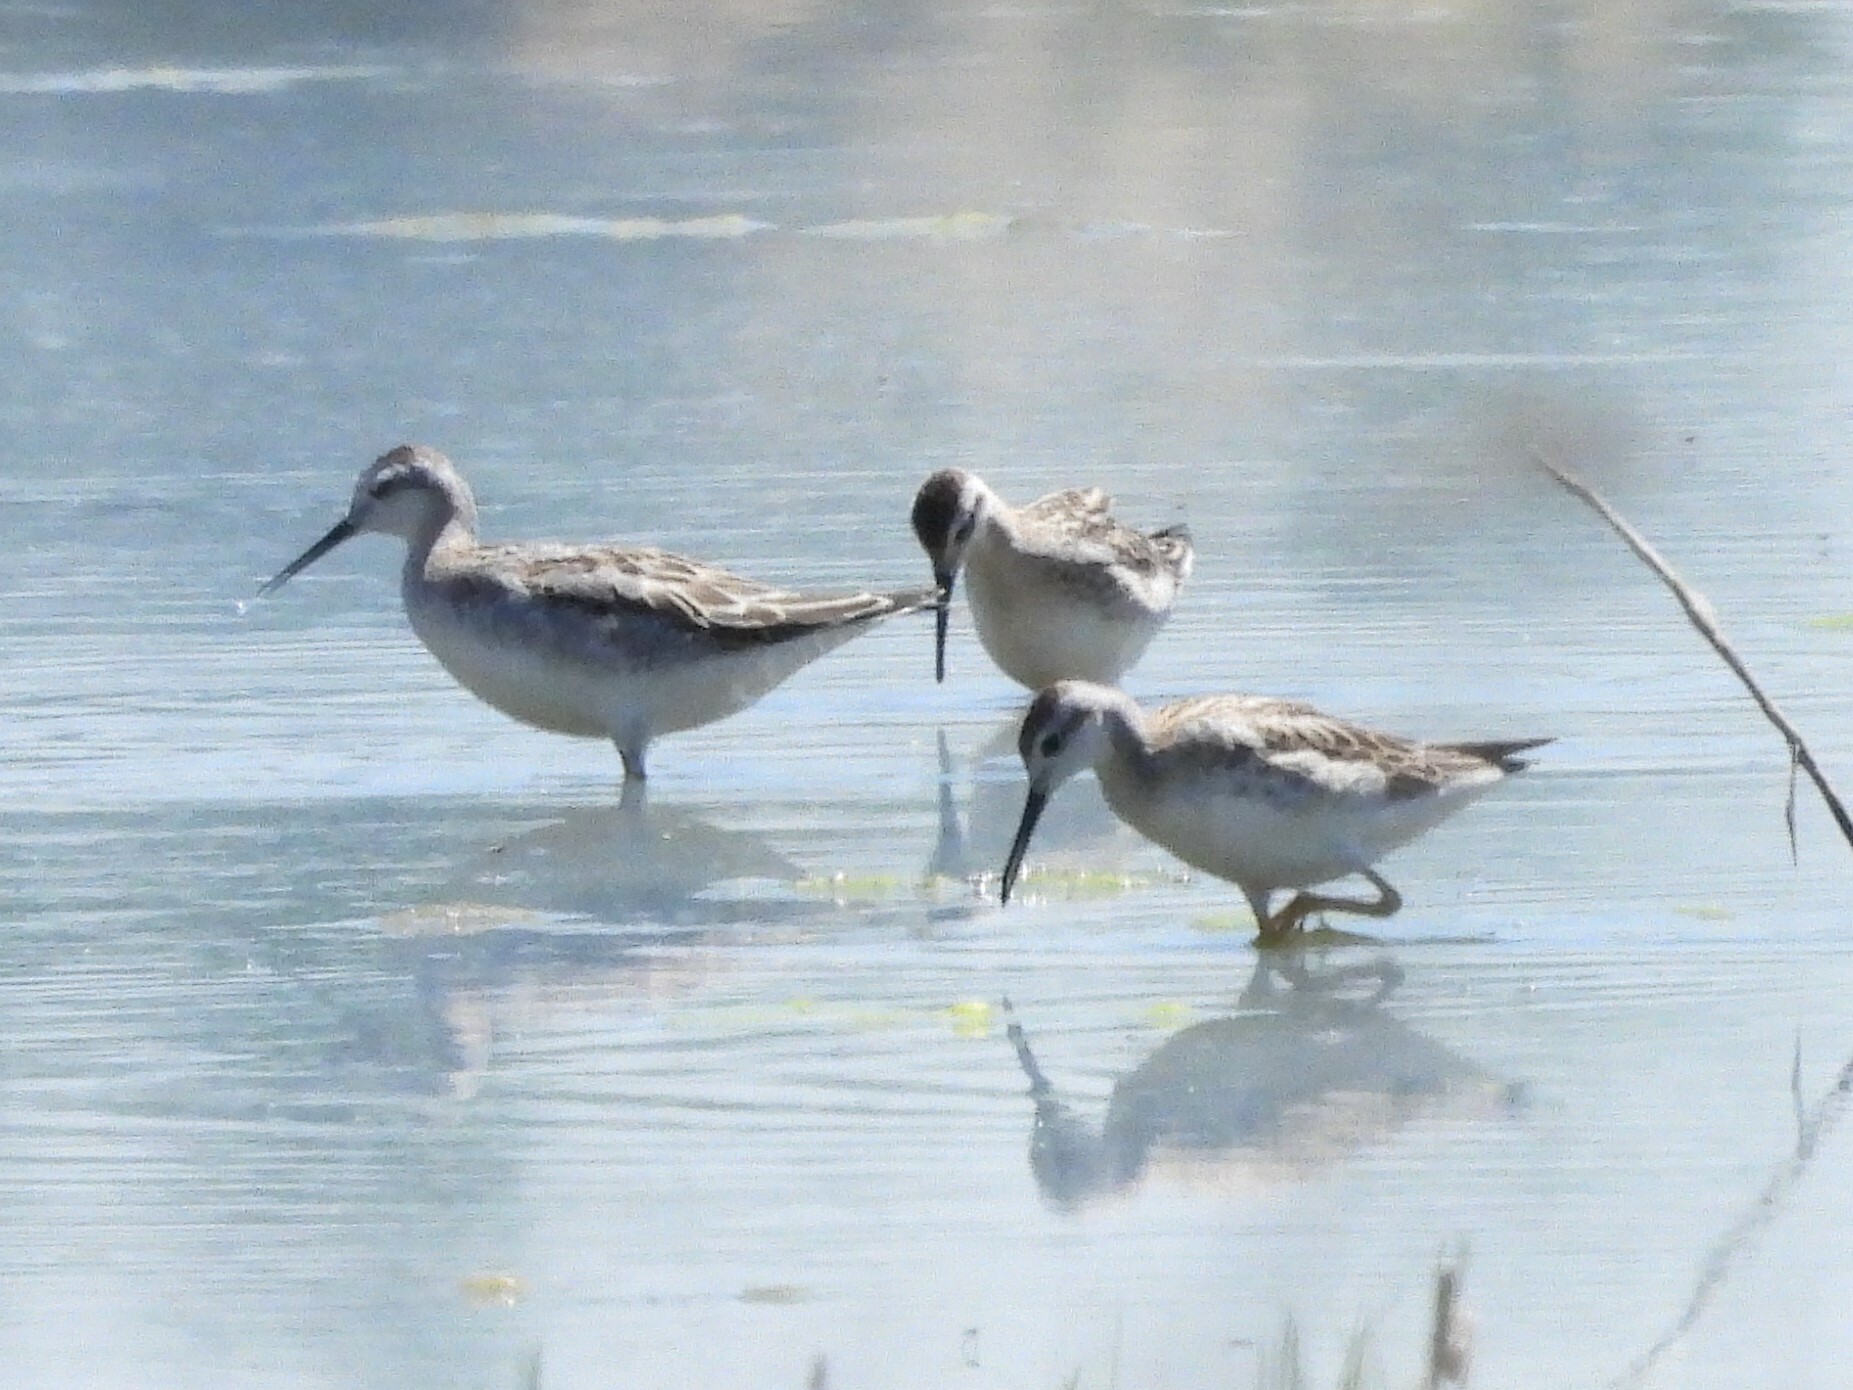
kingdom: Animalia
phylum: Chordata
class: Aves
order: Charadriiformes
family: Scolopacidae
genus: Phalaropus
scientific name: Phalaropus tricolor
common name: Wilson's phalarope
